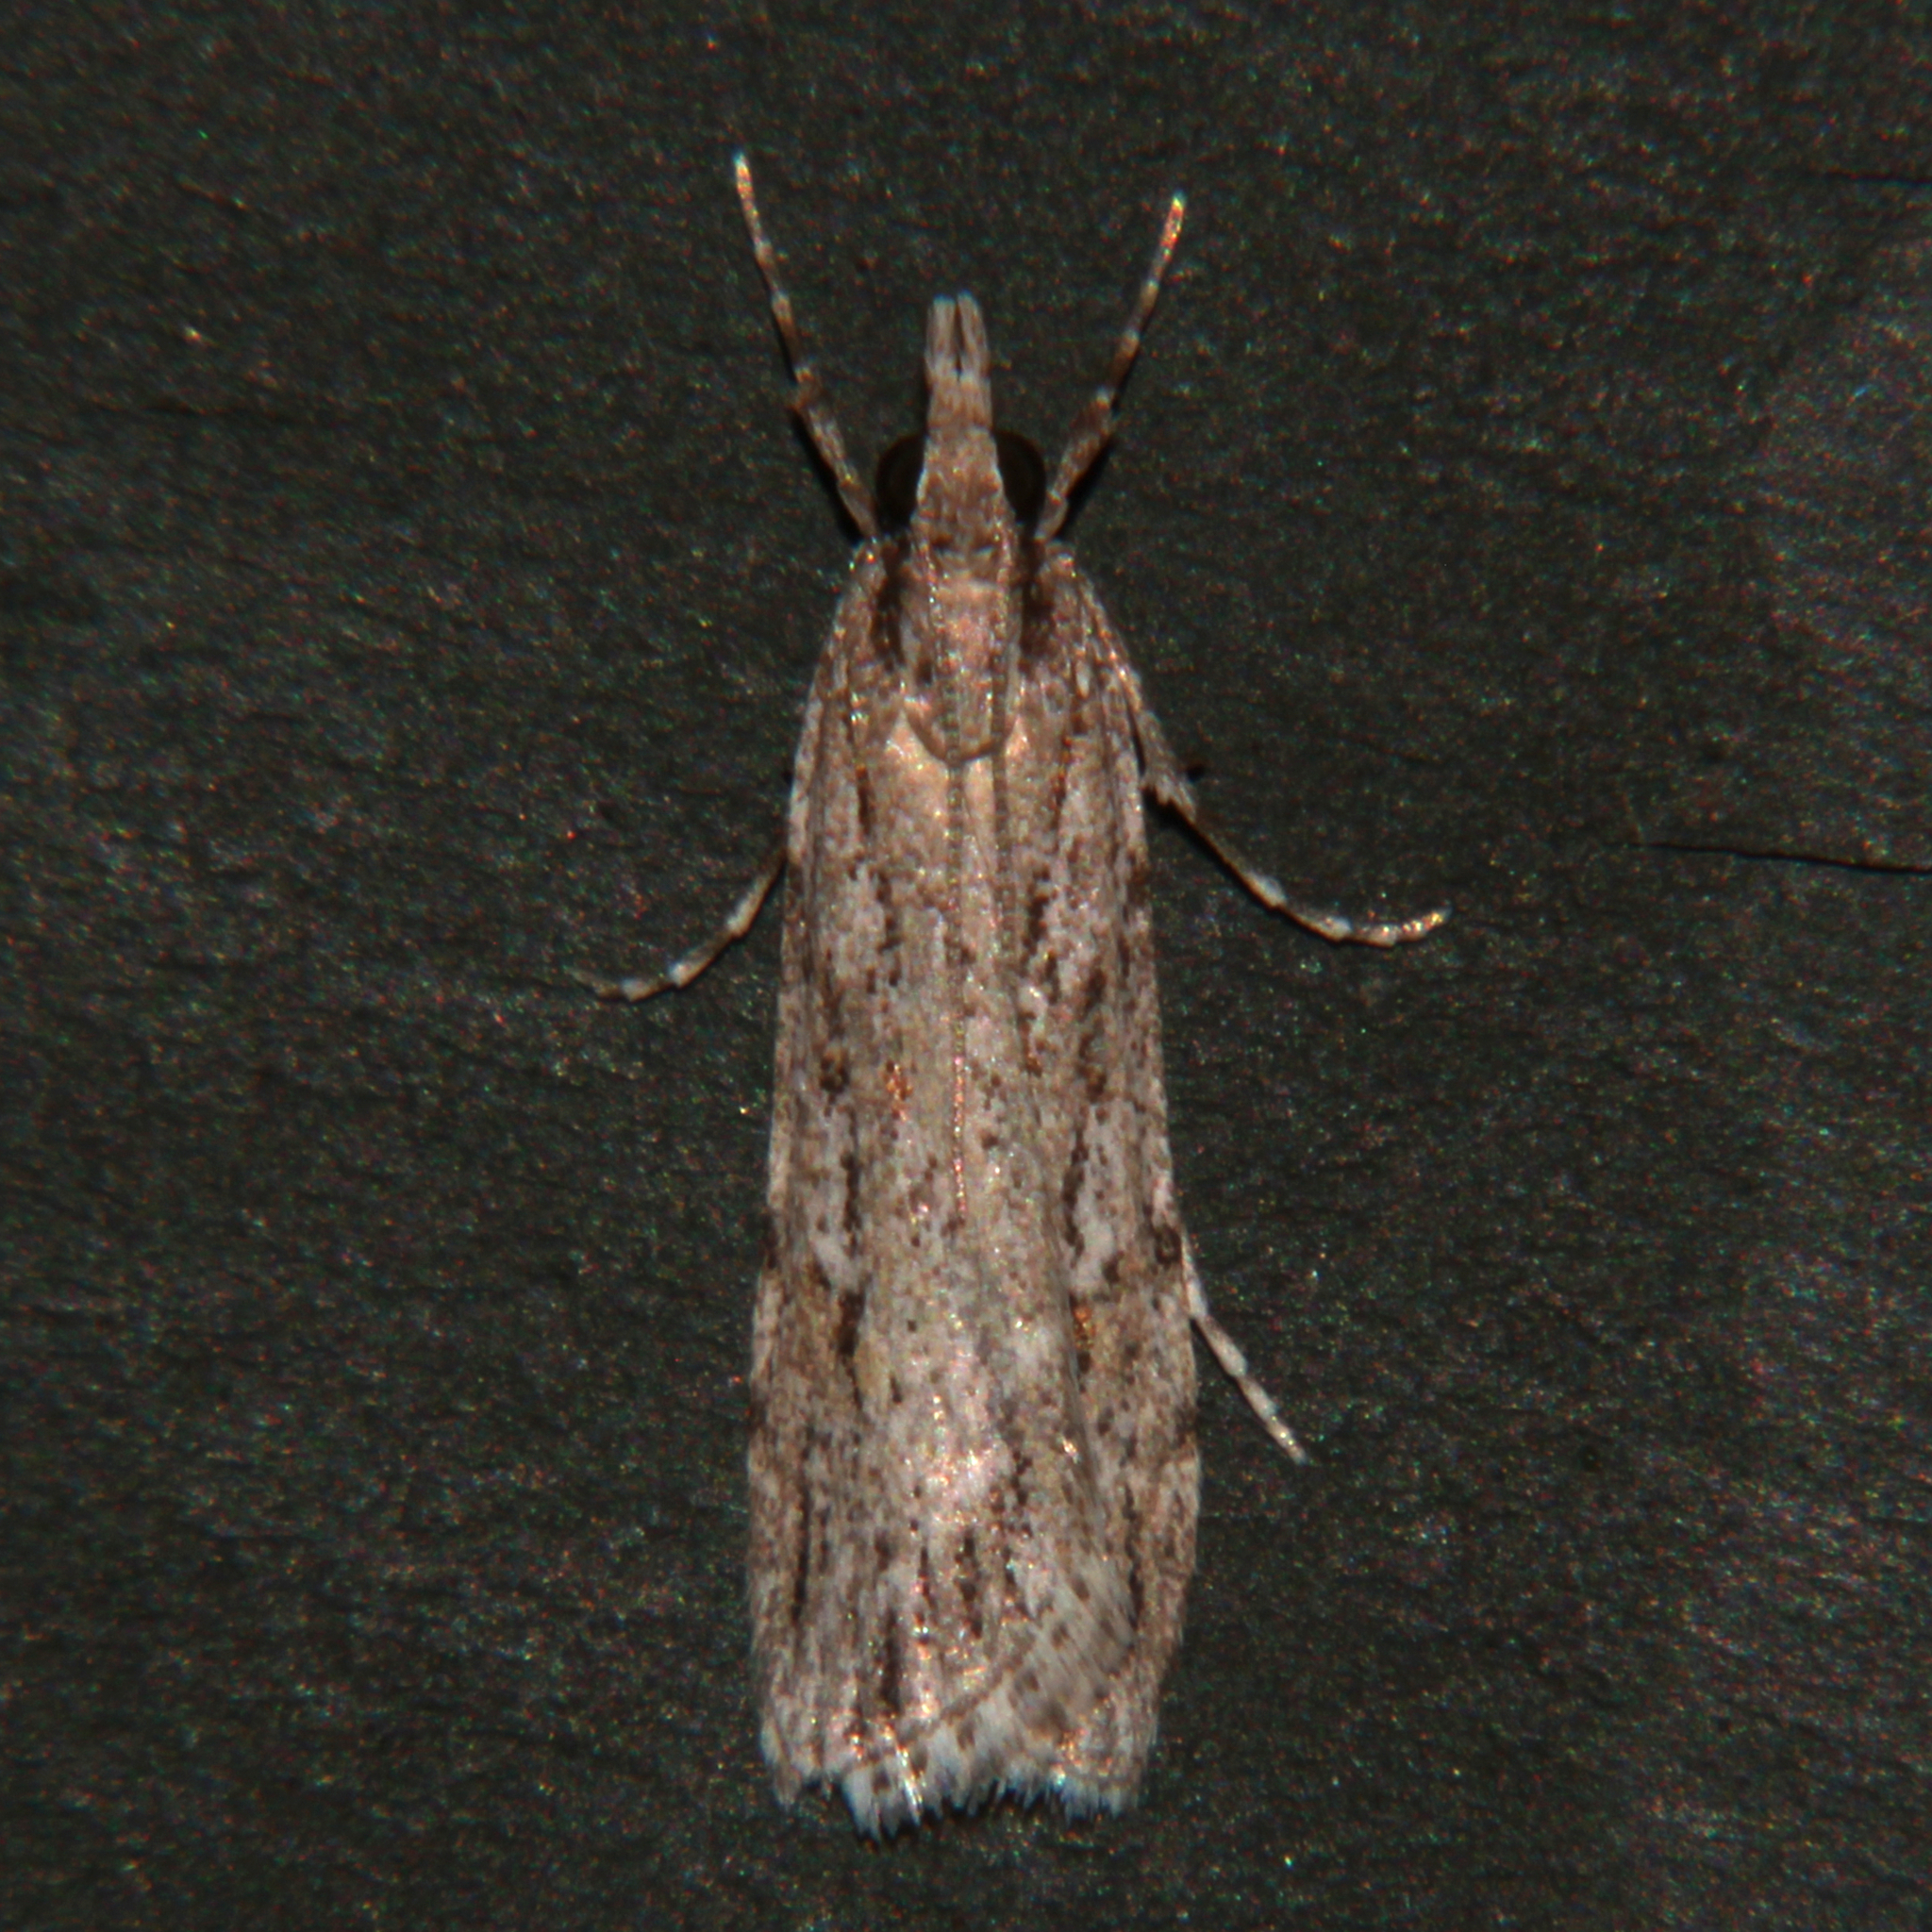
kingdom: Animalia
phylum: Arthropoda
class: Insecta
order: Lepidoptera
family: Crambidae
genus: Scoparia
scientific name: Scoparia chalicodes
